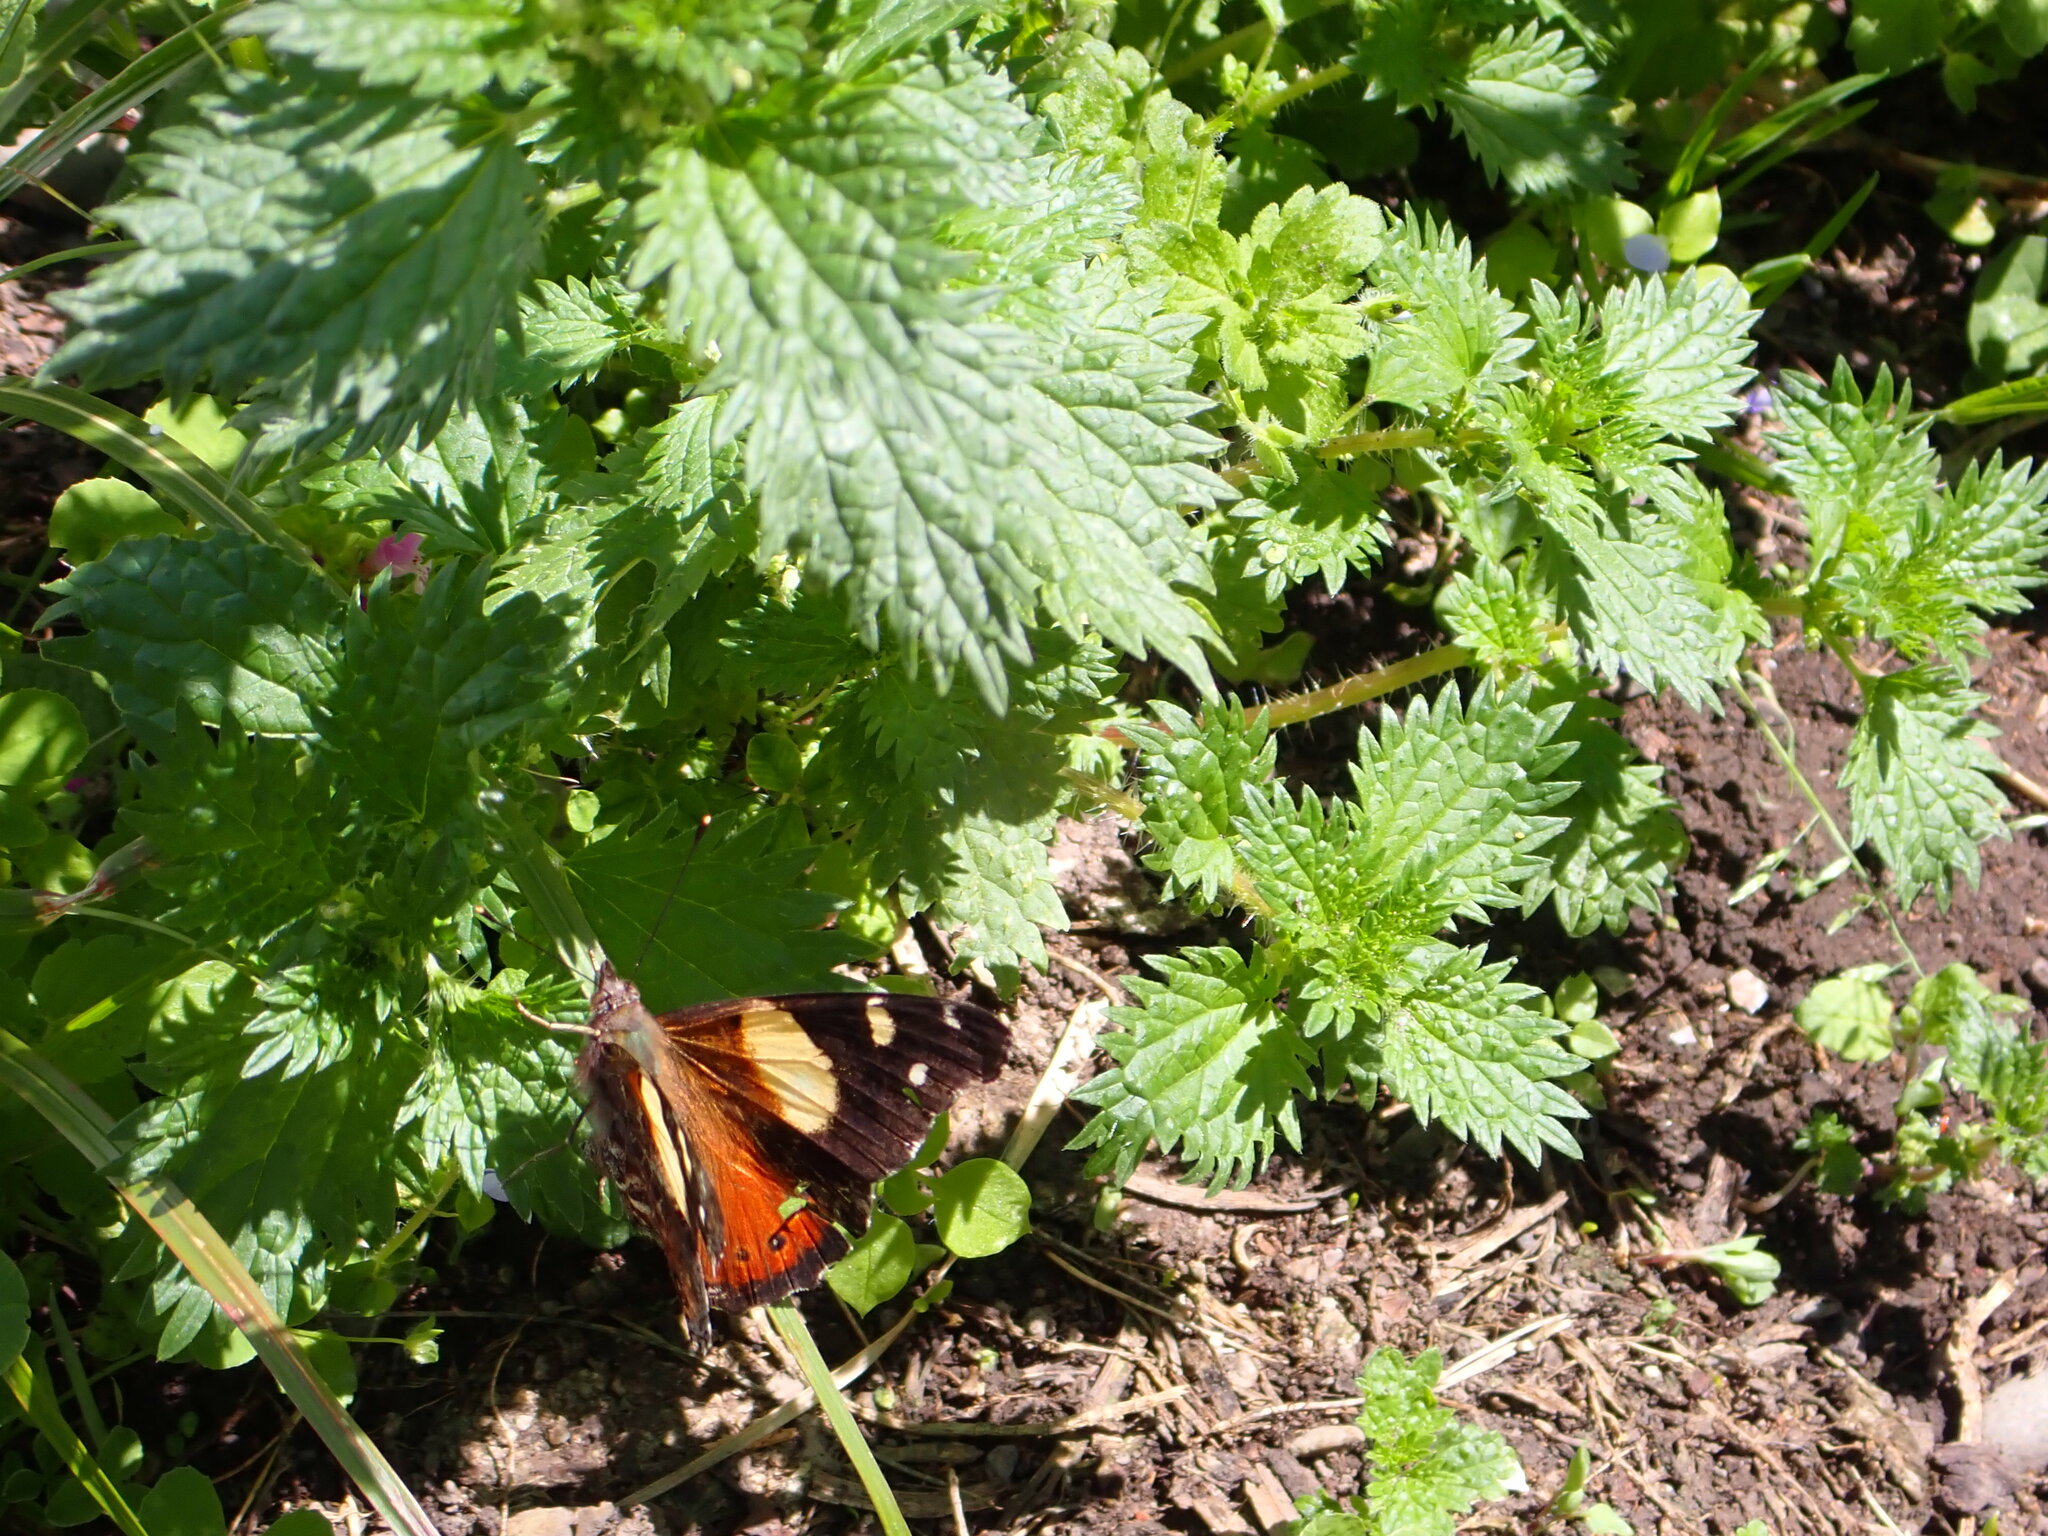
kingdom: Animalia
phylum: Arthropoda
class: Insecta
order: Lepidoptera
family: Nymphalidae
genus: Vanessa
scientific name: Vanessa itea
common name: Yellow admiral
